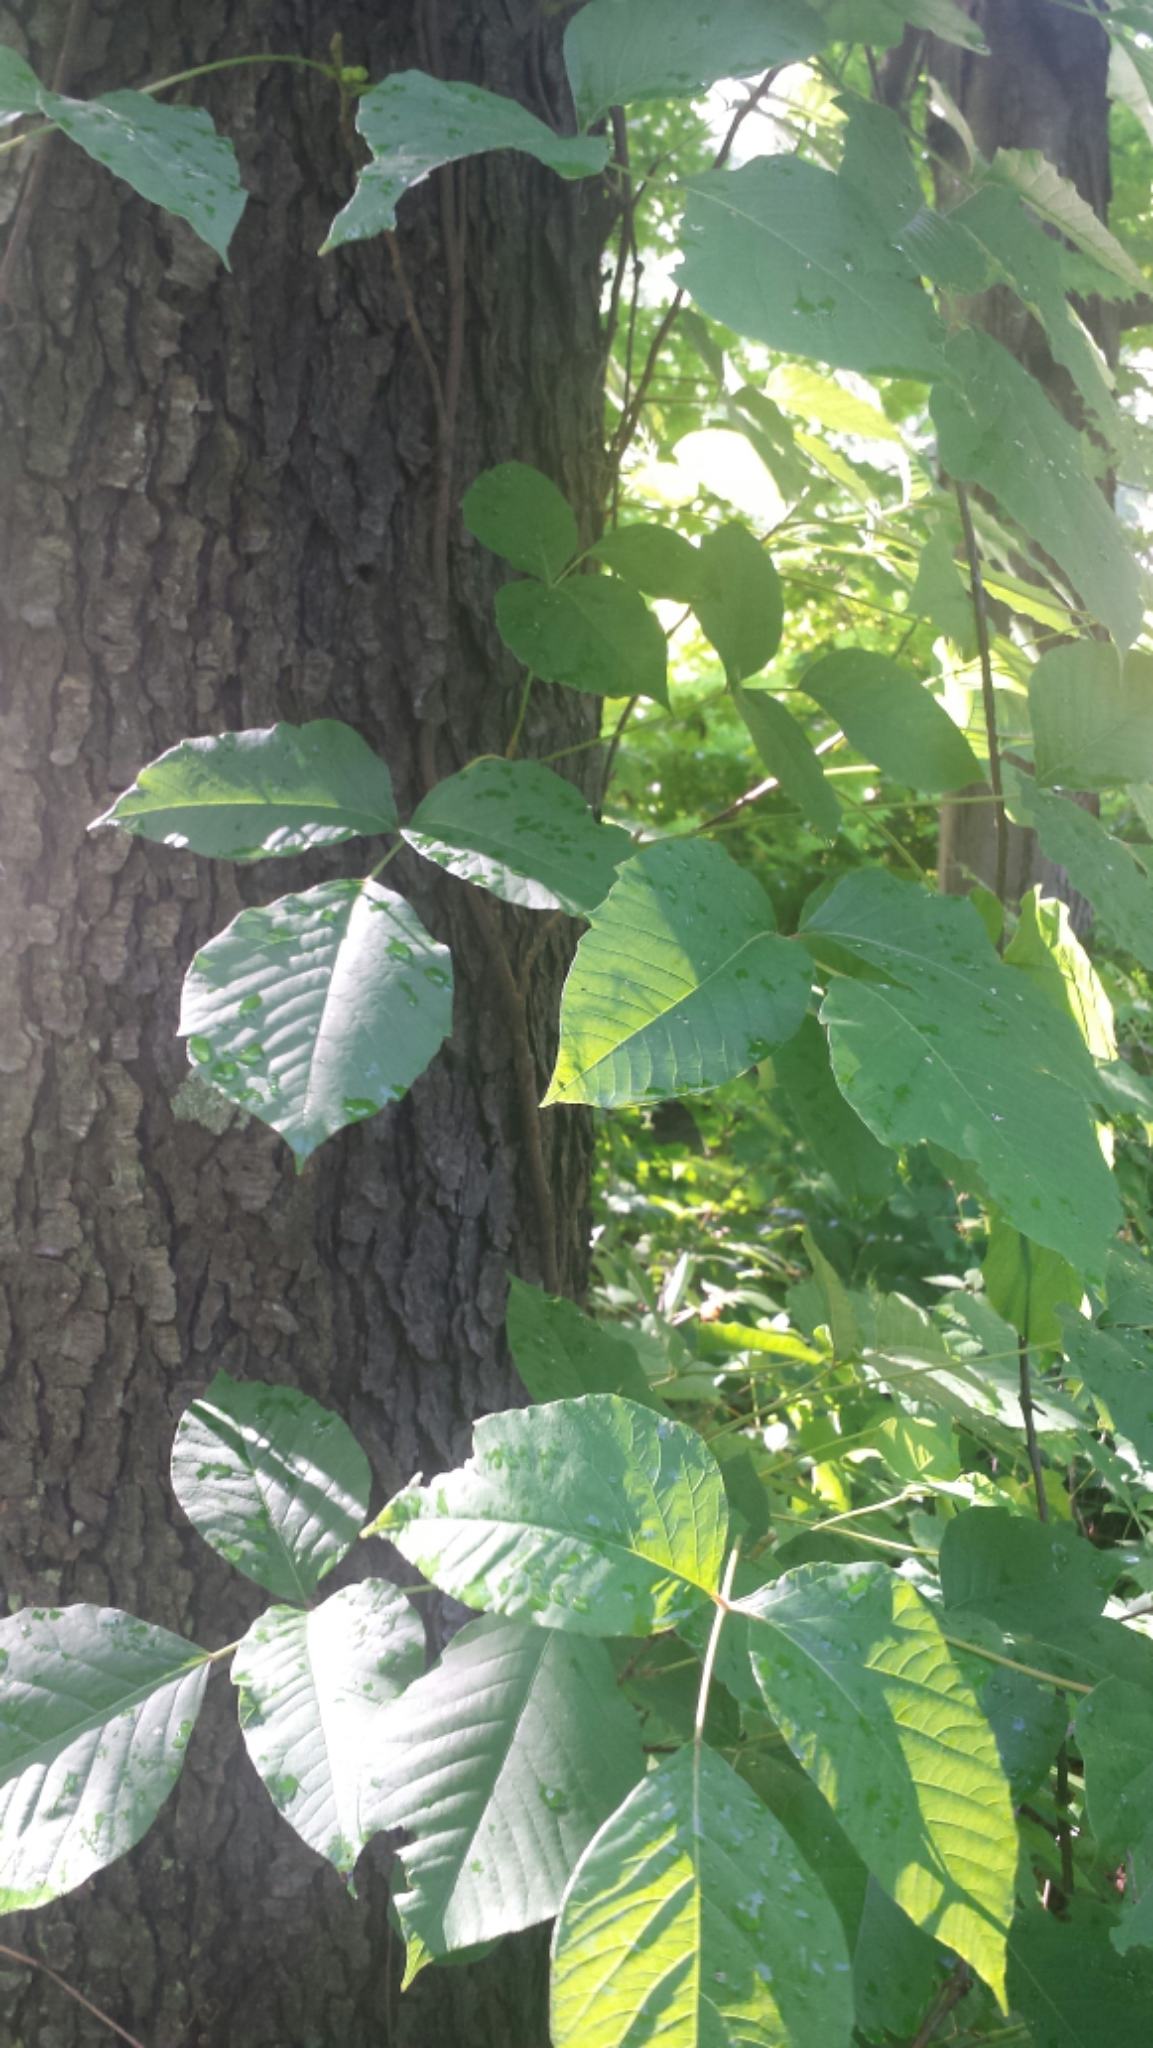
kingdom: Plantae
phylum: Tracheophyta
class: Magnoliopsida
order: Sapindales
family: Anacardiaceae
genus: Toxicodendron
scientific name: Toxicodendron radicans
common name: Poison ivy
